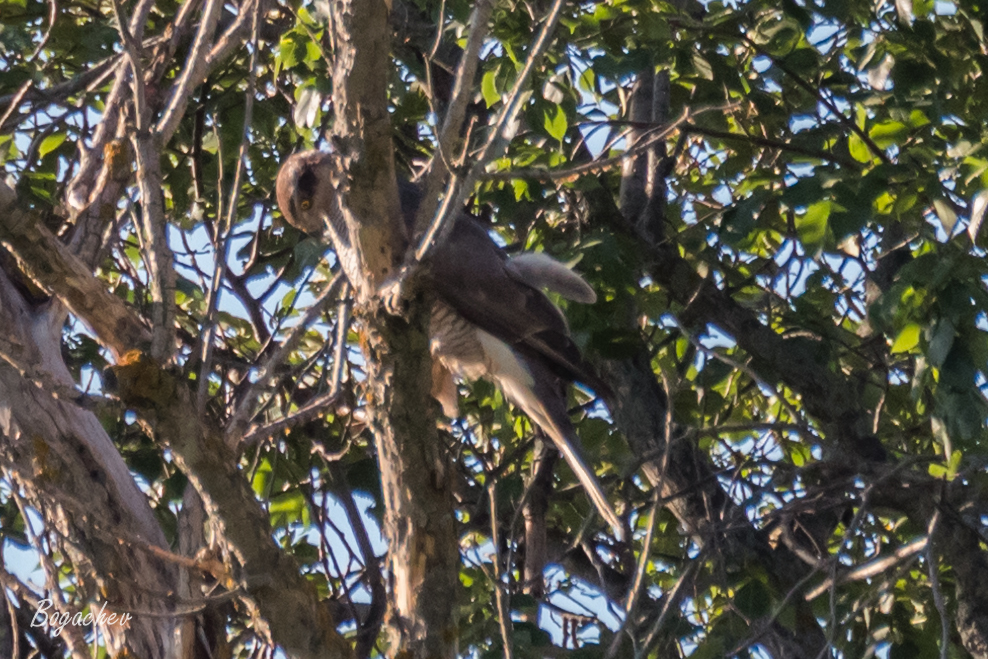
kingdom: Animalia
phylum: Chordata
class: Aves
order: Accipitriformes
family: Accipitridae
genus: Accipiter
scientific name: Accipiter gentilis
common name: Northern goshawk
